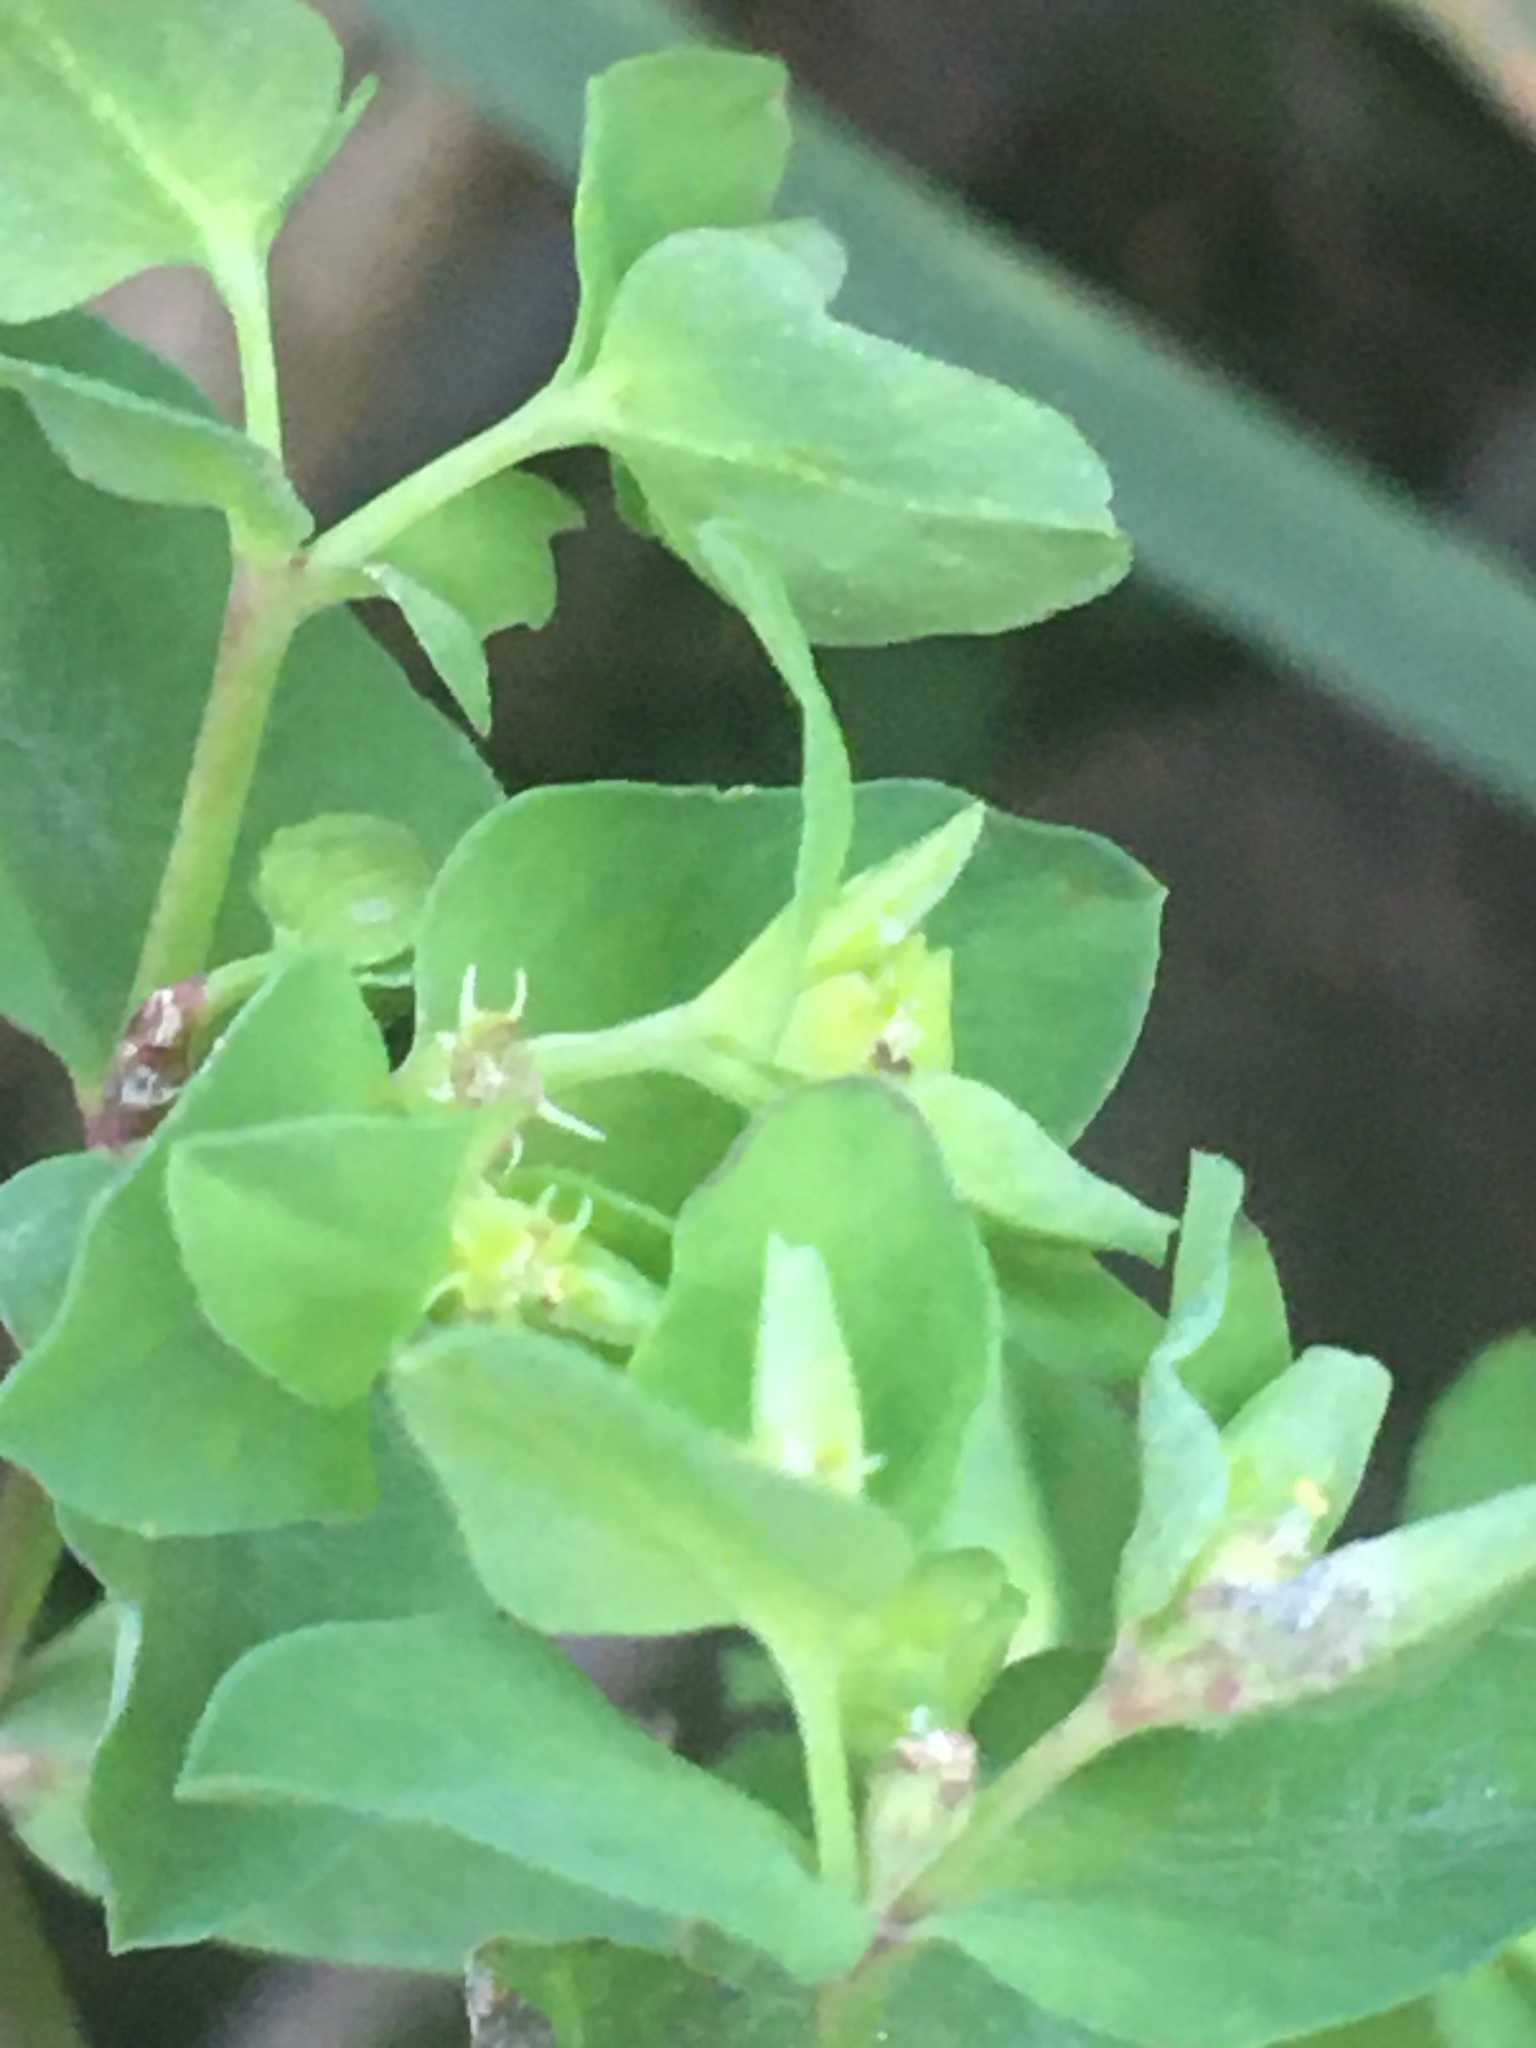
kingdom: Plantae
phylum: Tracheophyta
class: Magnoliopsida
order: Malpighiales
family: Euphorbiaceae
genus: Euphorbia
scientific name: Euphorbia peplus
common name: Petty spurge
